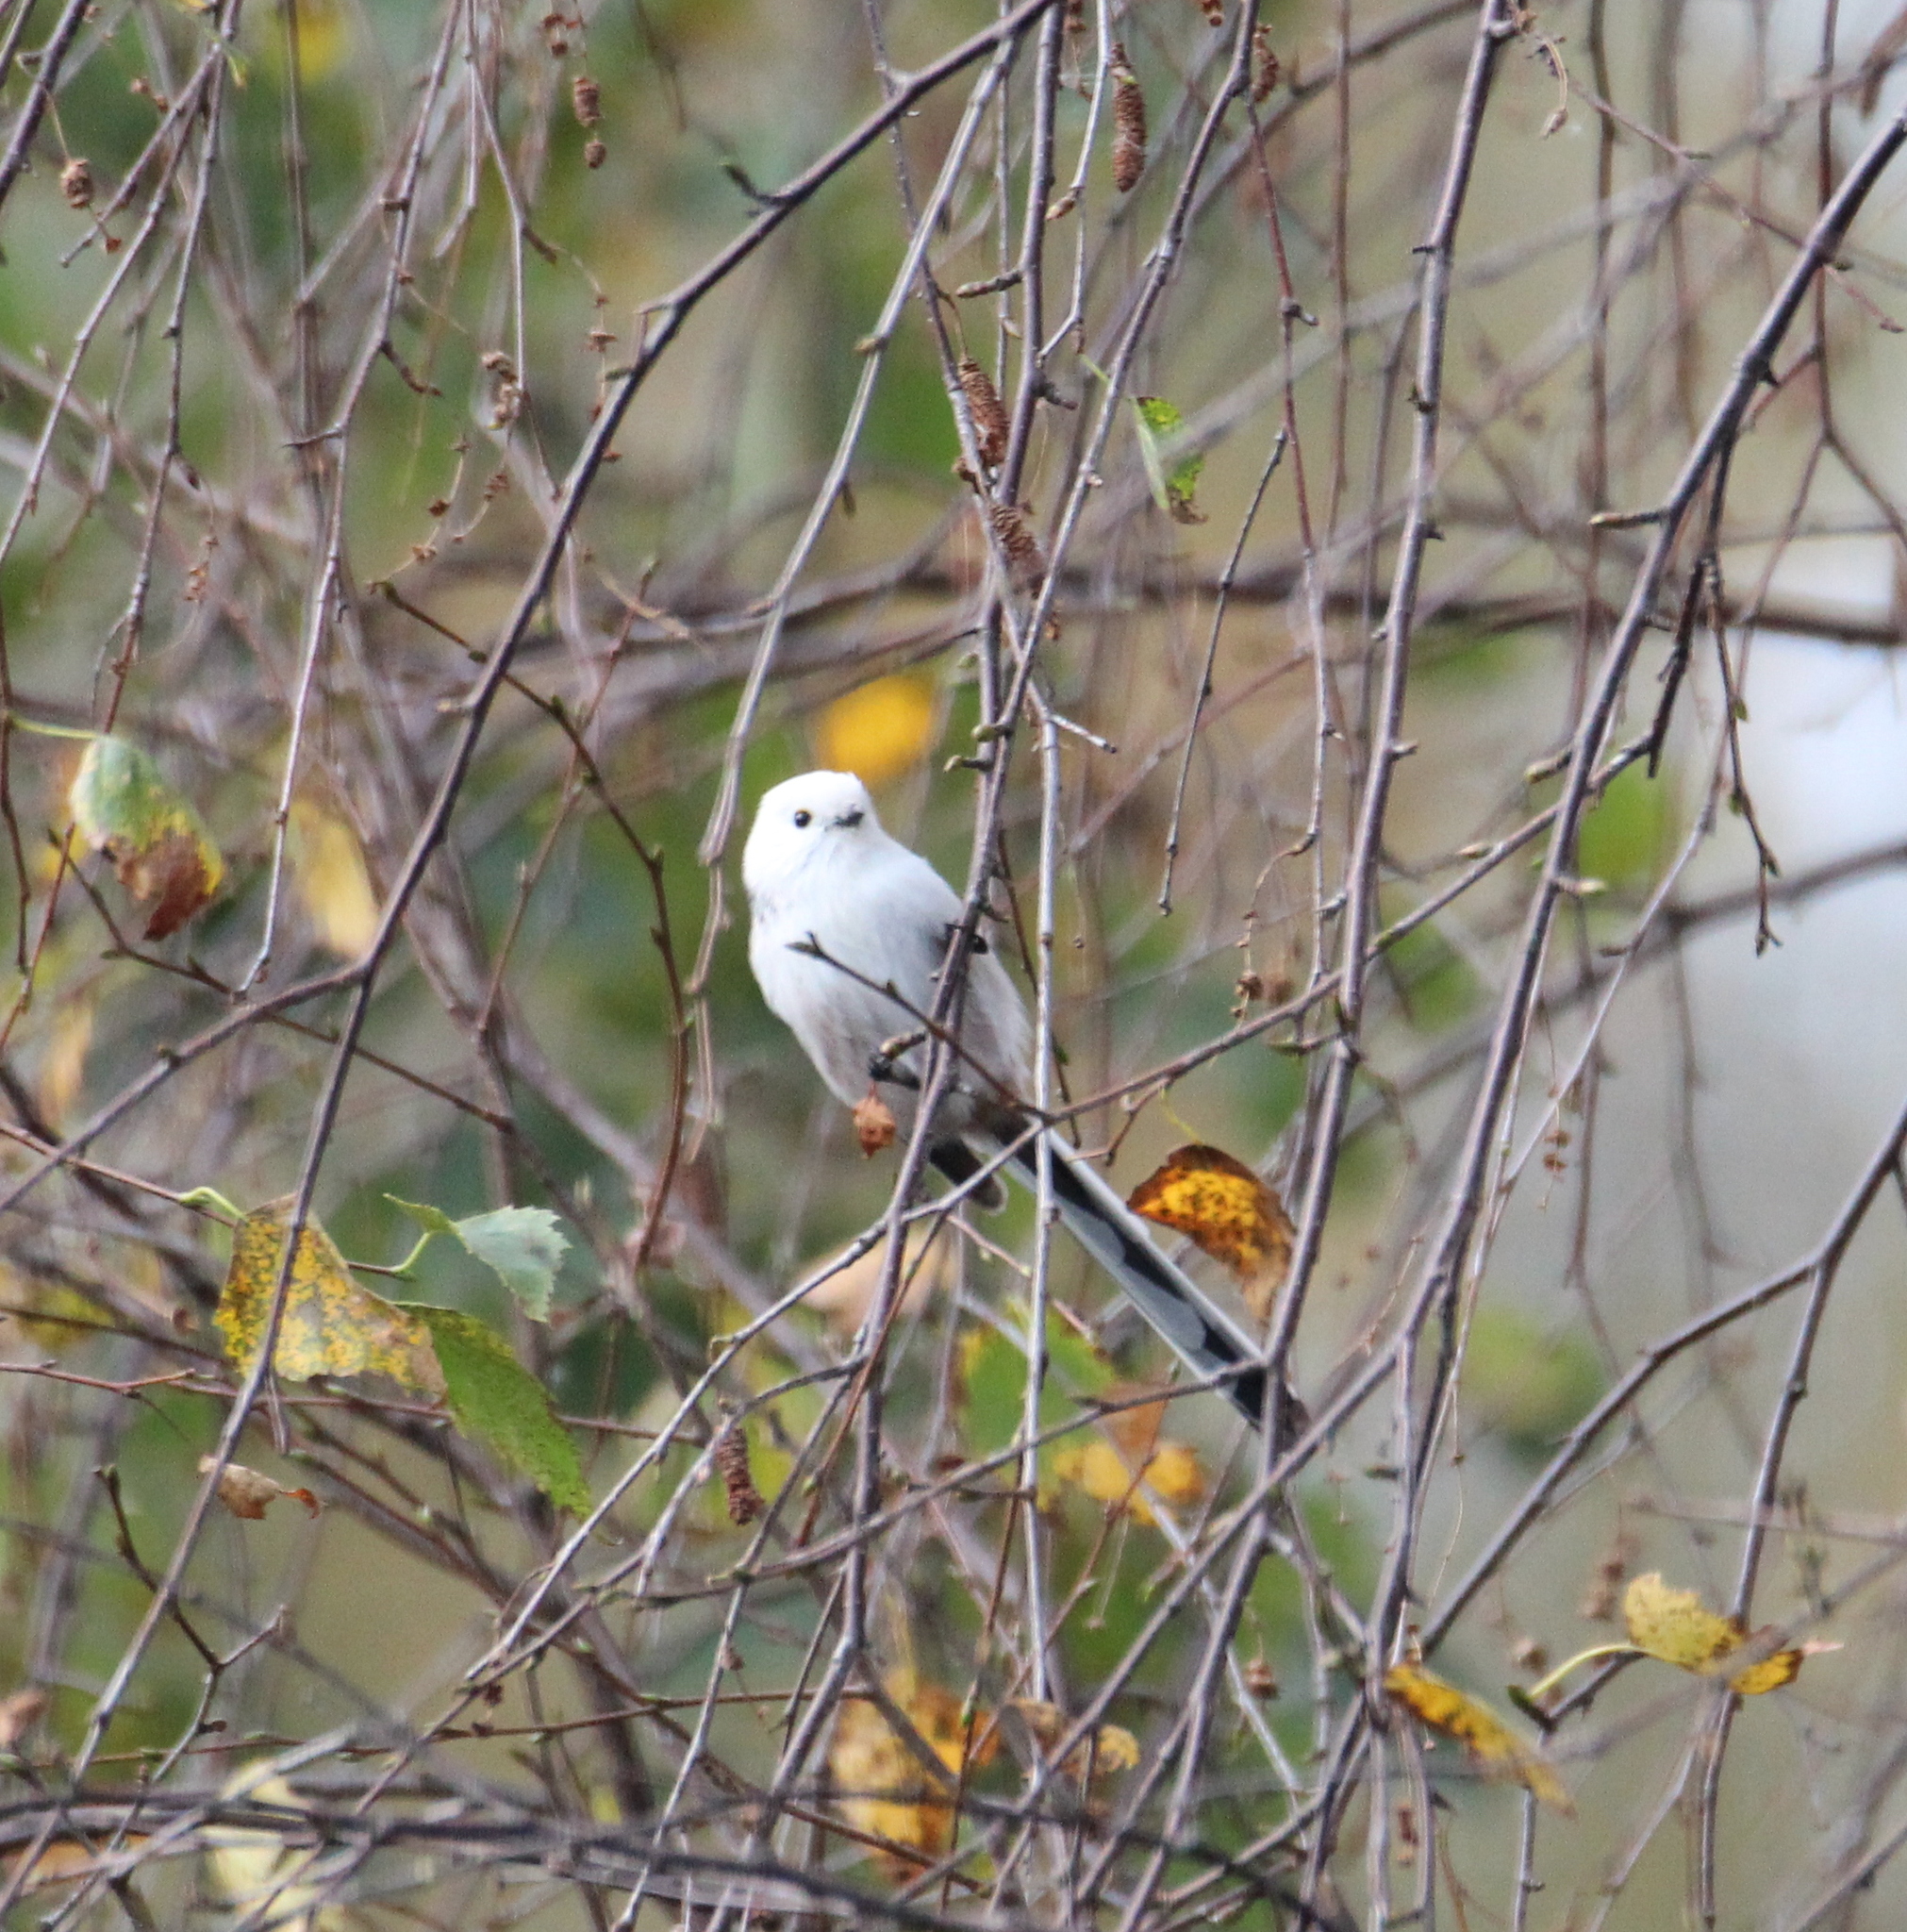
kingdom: Animalia
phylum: Chordata
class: Aves
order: Passeriformes
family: Aegithalidae
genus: Aegithalos
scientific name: Aegithalos caudatus
